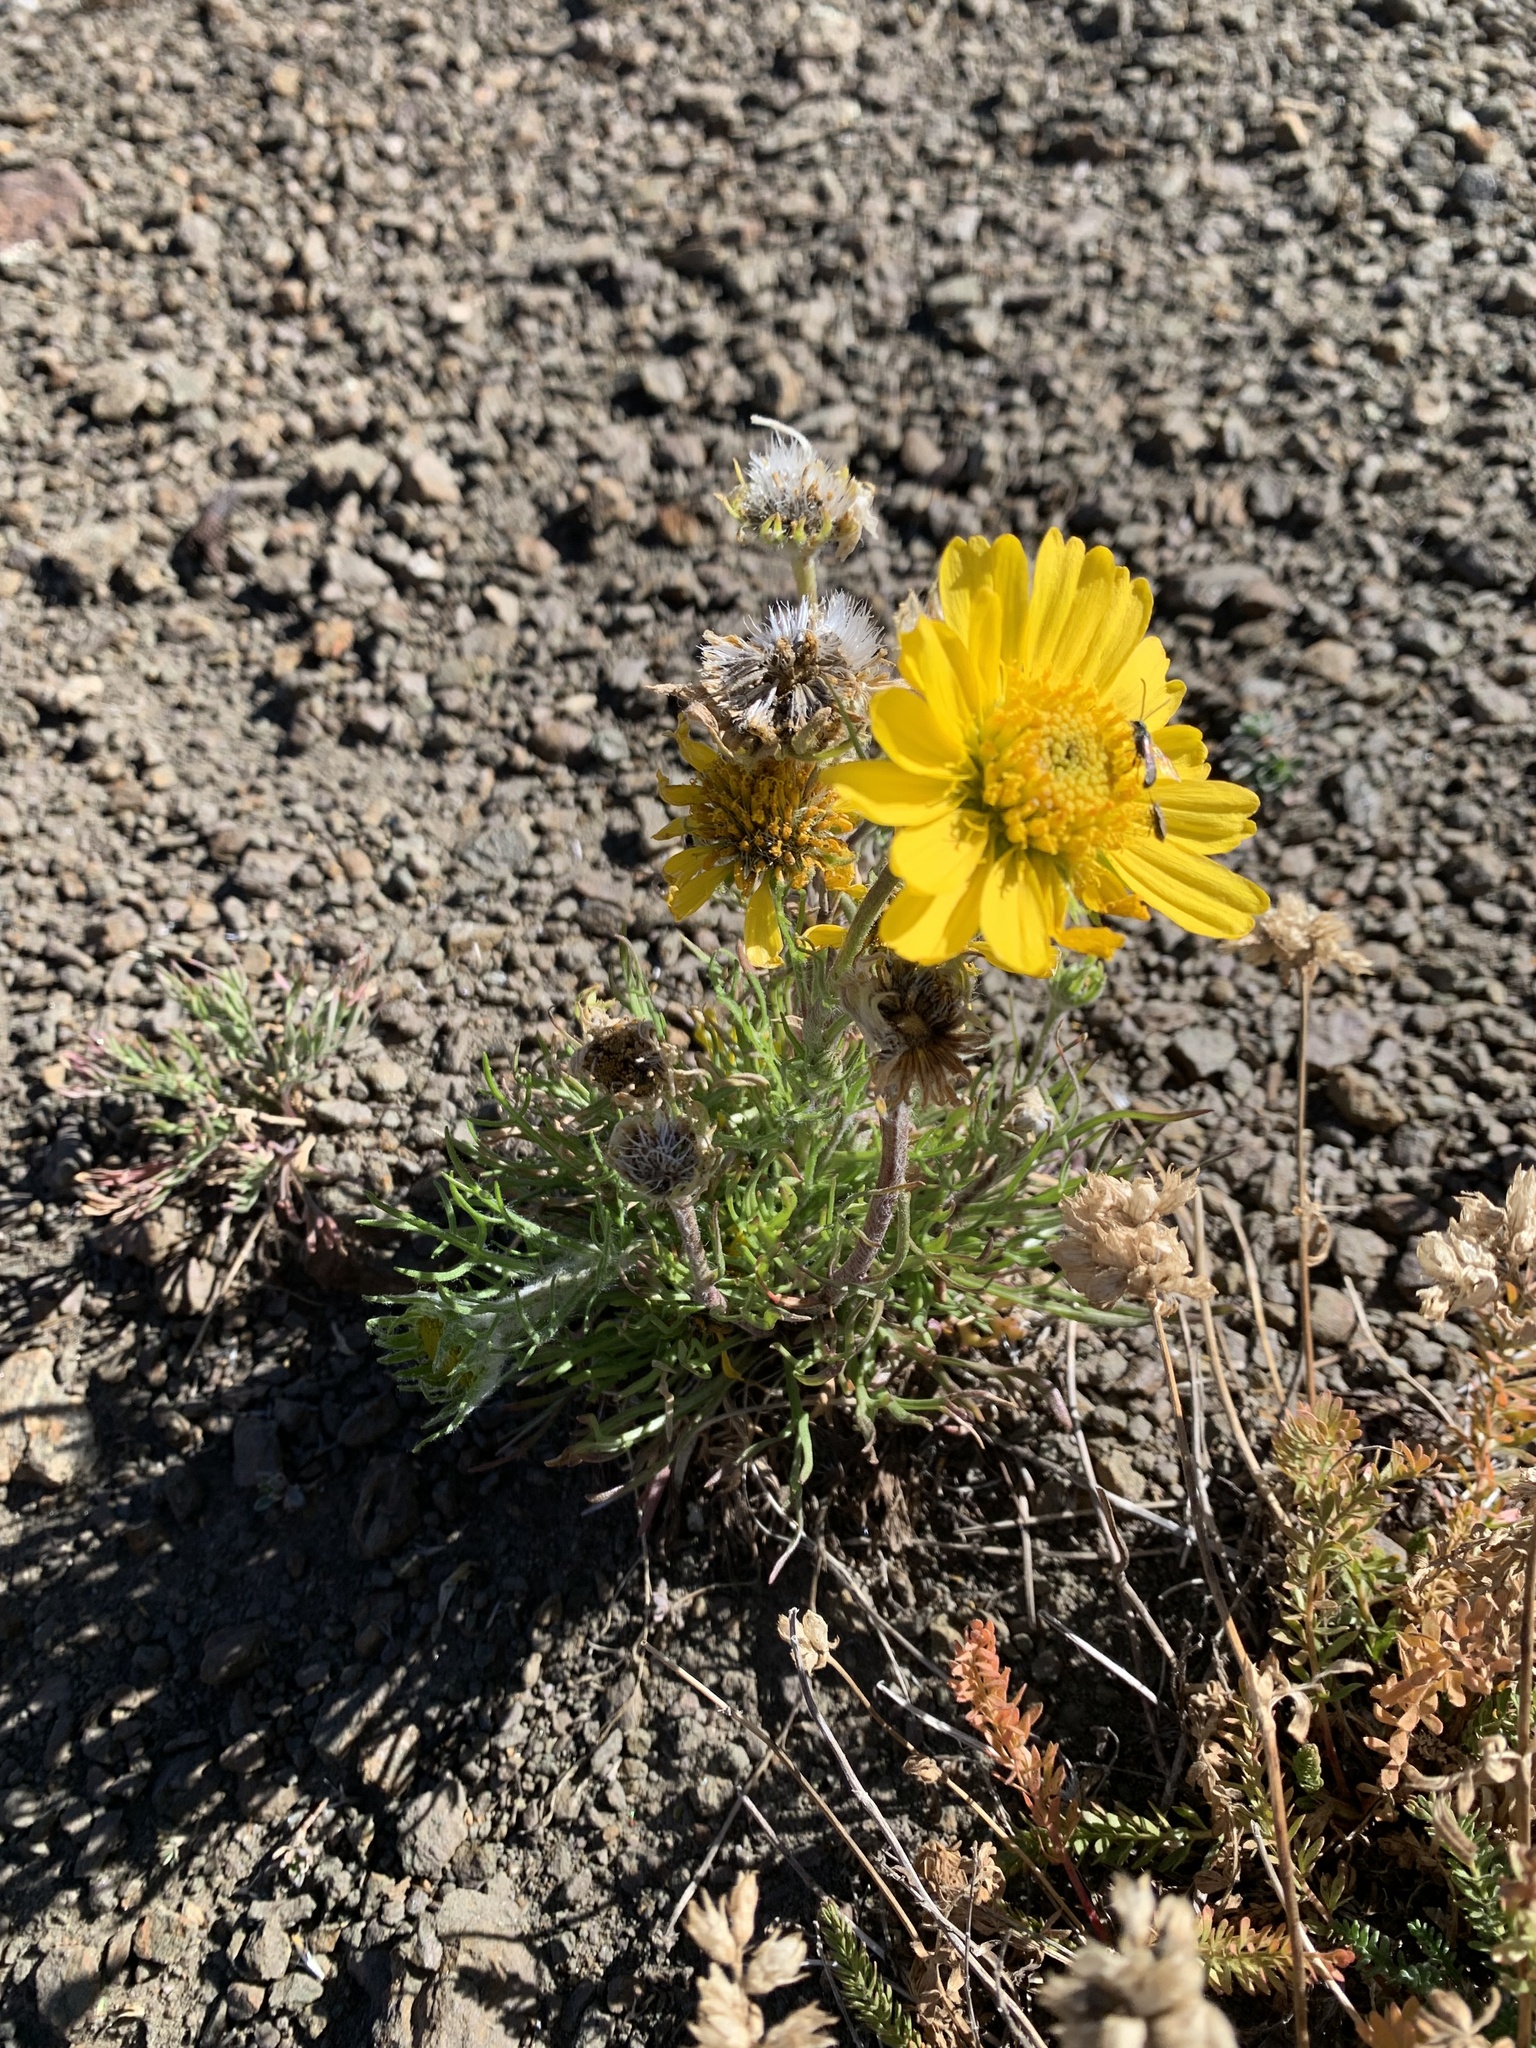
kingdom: Plantae
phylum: Tracheophyta
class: Magnoliopsida
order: Asterales
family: Asteraceae
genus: Hymenoxys
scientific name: Hymenoxys grandiflora
